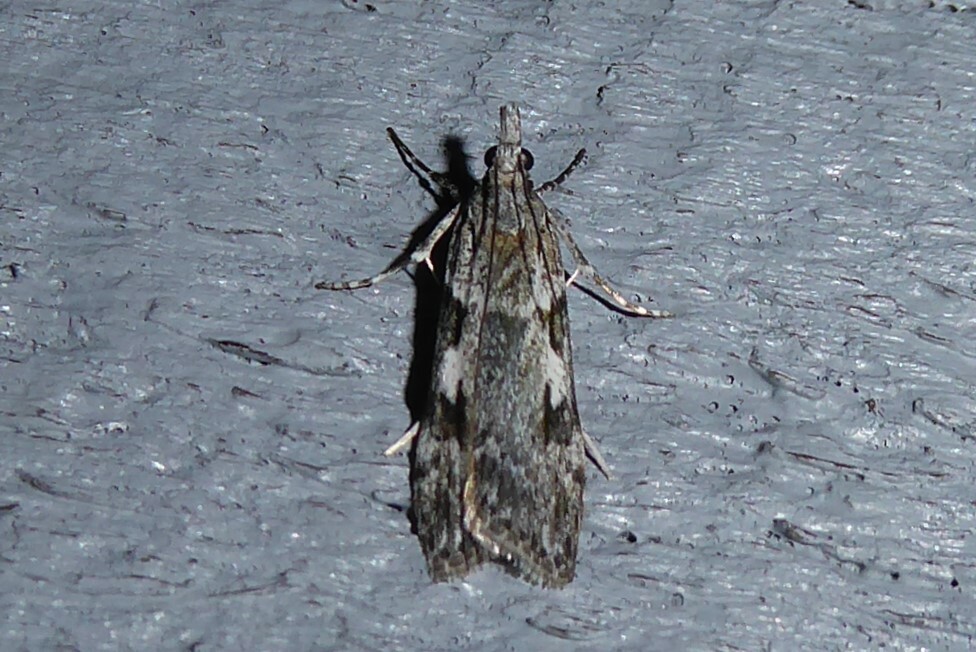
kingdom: Animalia
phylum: Arthropoda
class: Insecta
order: Lepidoptera
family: Crambidae
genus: Scoparia
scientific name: Scoparia halopis
